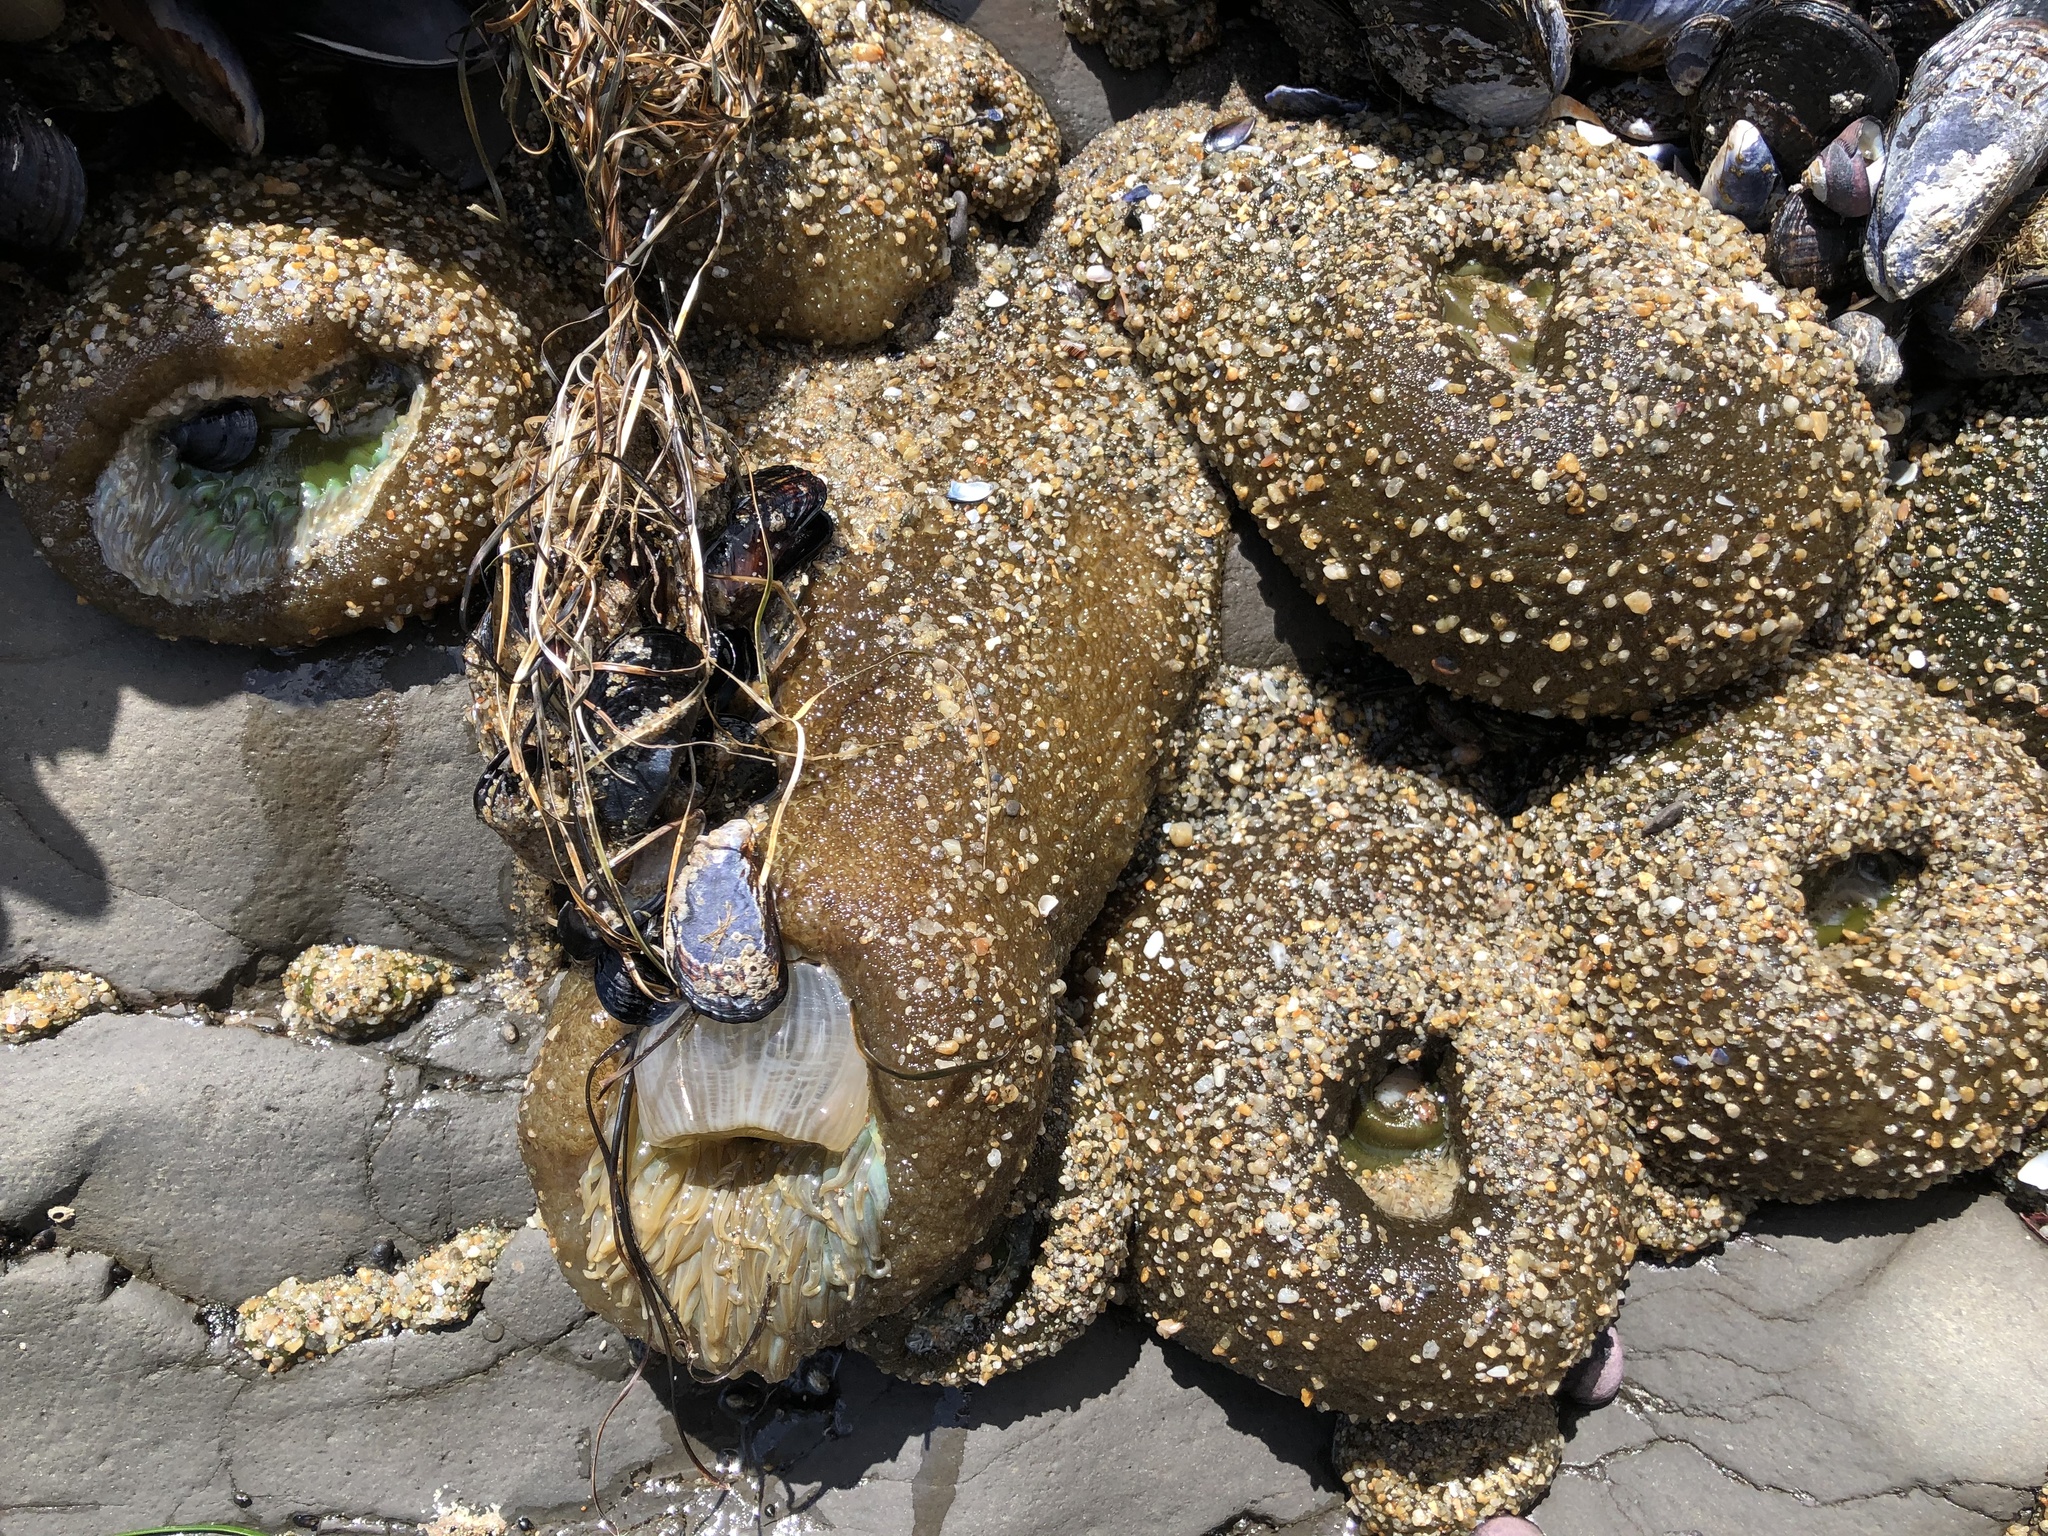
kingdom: Animalia
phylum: Cnidaria
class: Anthozoa
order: Actiniaria
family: Actiniidae
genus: Anthopleura
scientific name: Anthopleura xanthogrammica
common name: Giant green anemone
